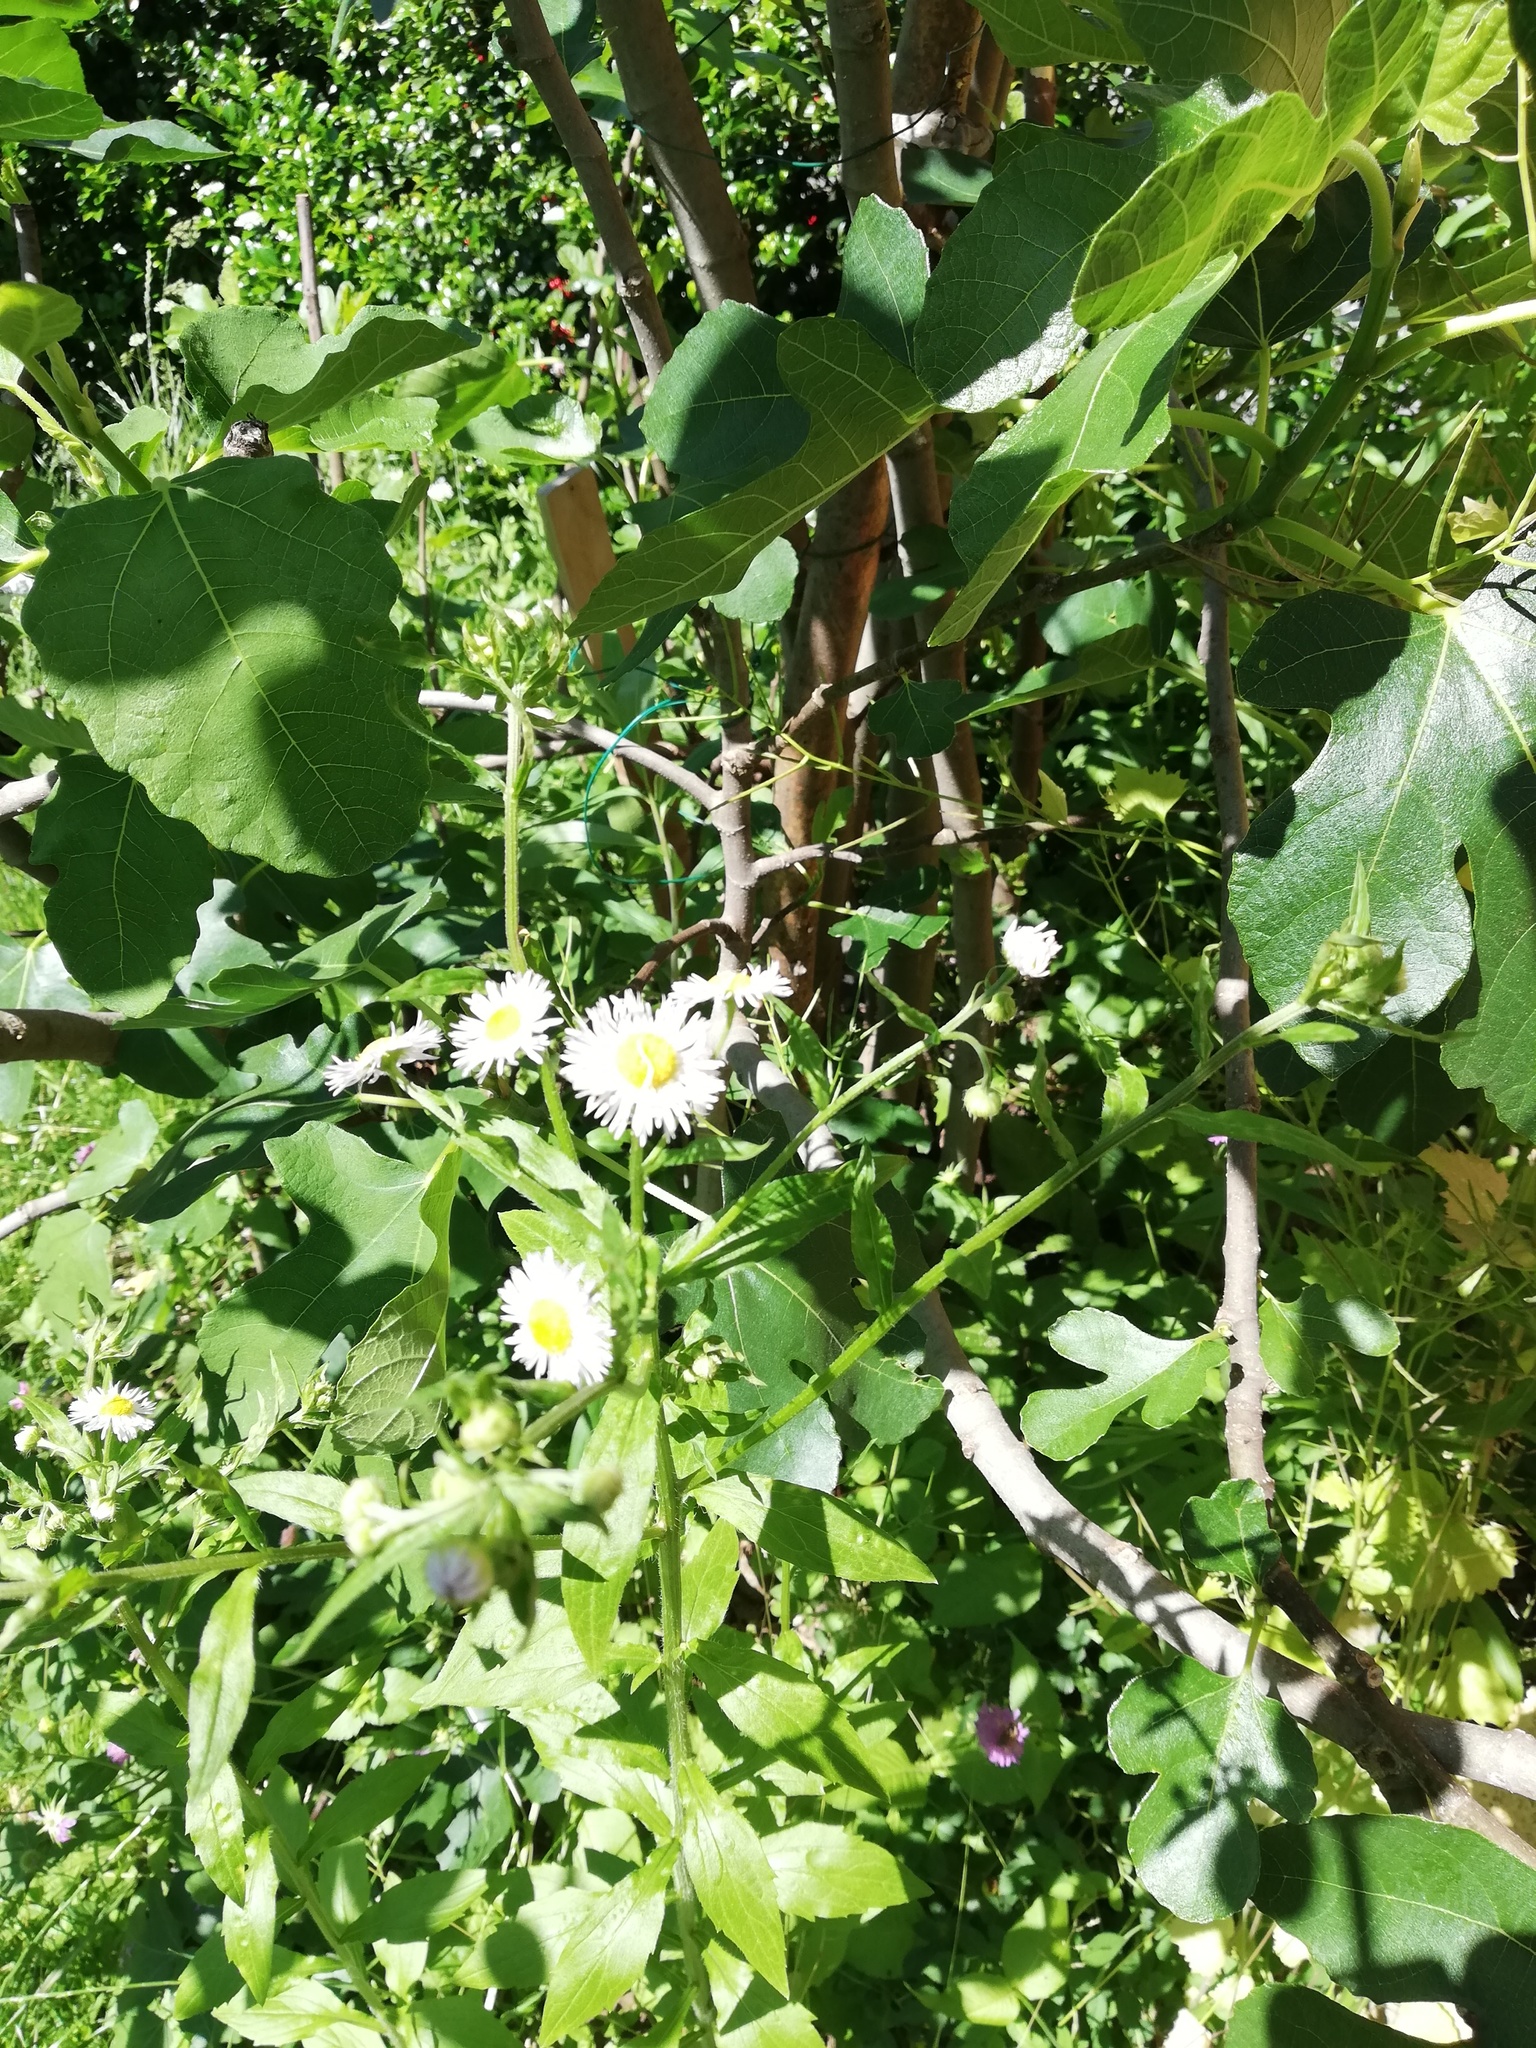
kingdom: Plantae
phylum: Tracheophyta
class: Magnoliopsida
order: Asterales
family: Asteraceae
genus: Erigeron
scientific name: Erigeron annuus
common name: Tall fleabane
